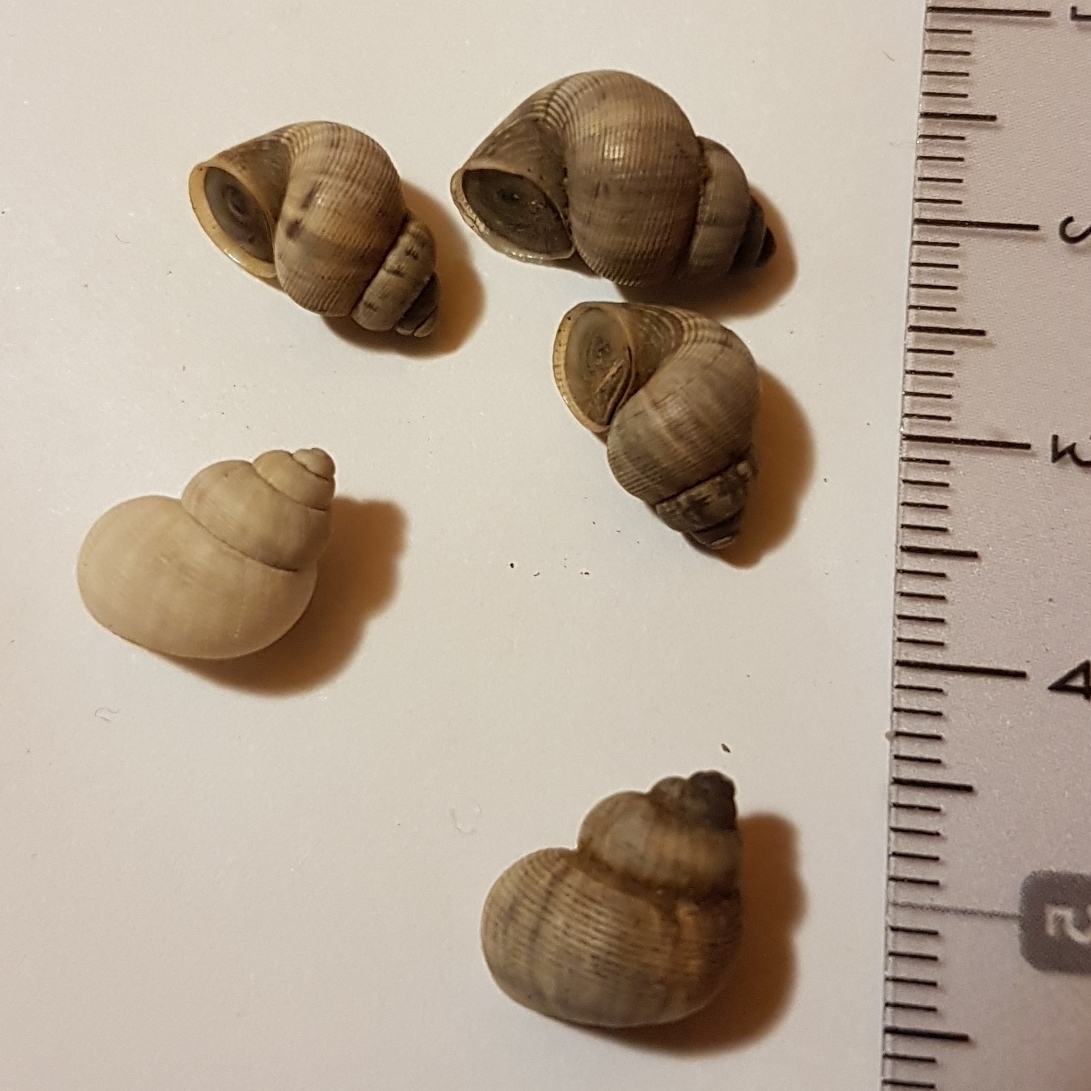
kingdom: Animalia
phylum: Mollusca
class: Gastropoda
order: Littorinimorpha
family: Pomatiidae
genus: Pomatias
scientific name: Pomatias elegans
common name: Red-mouthed snail
